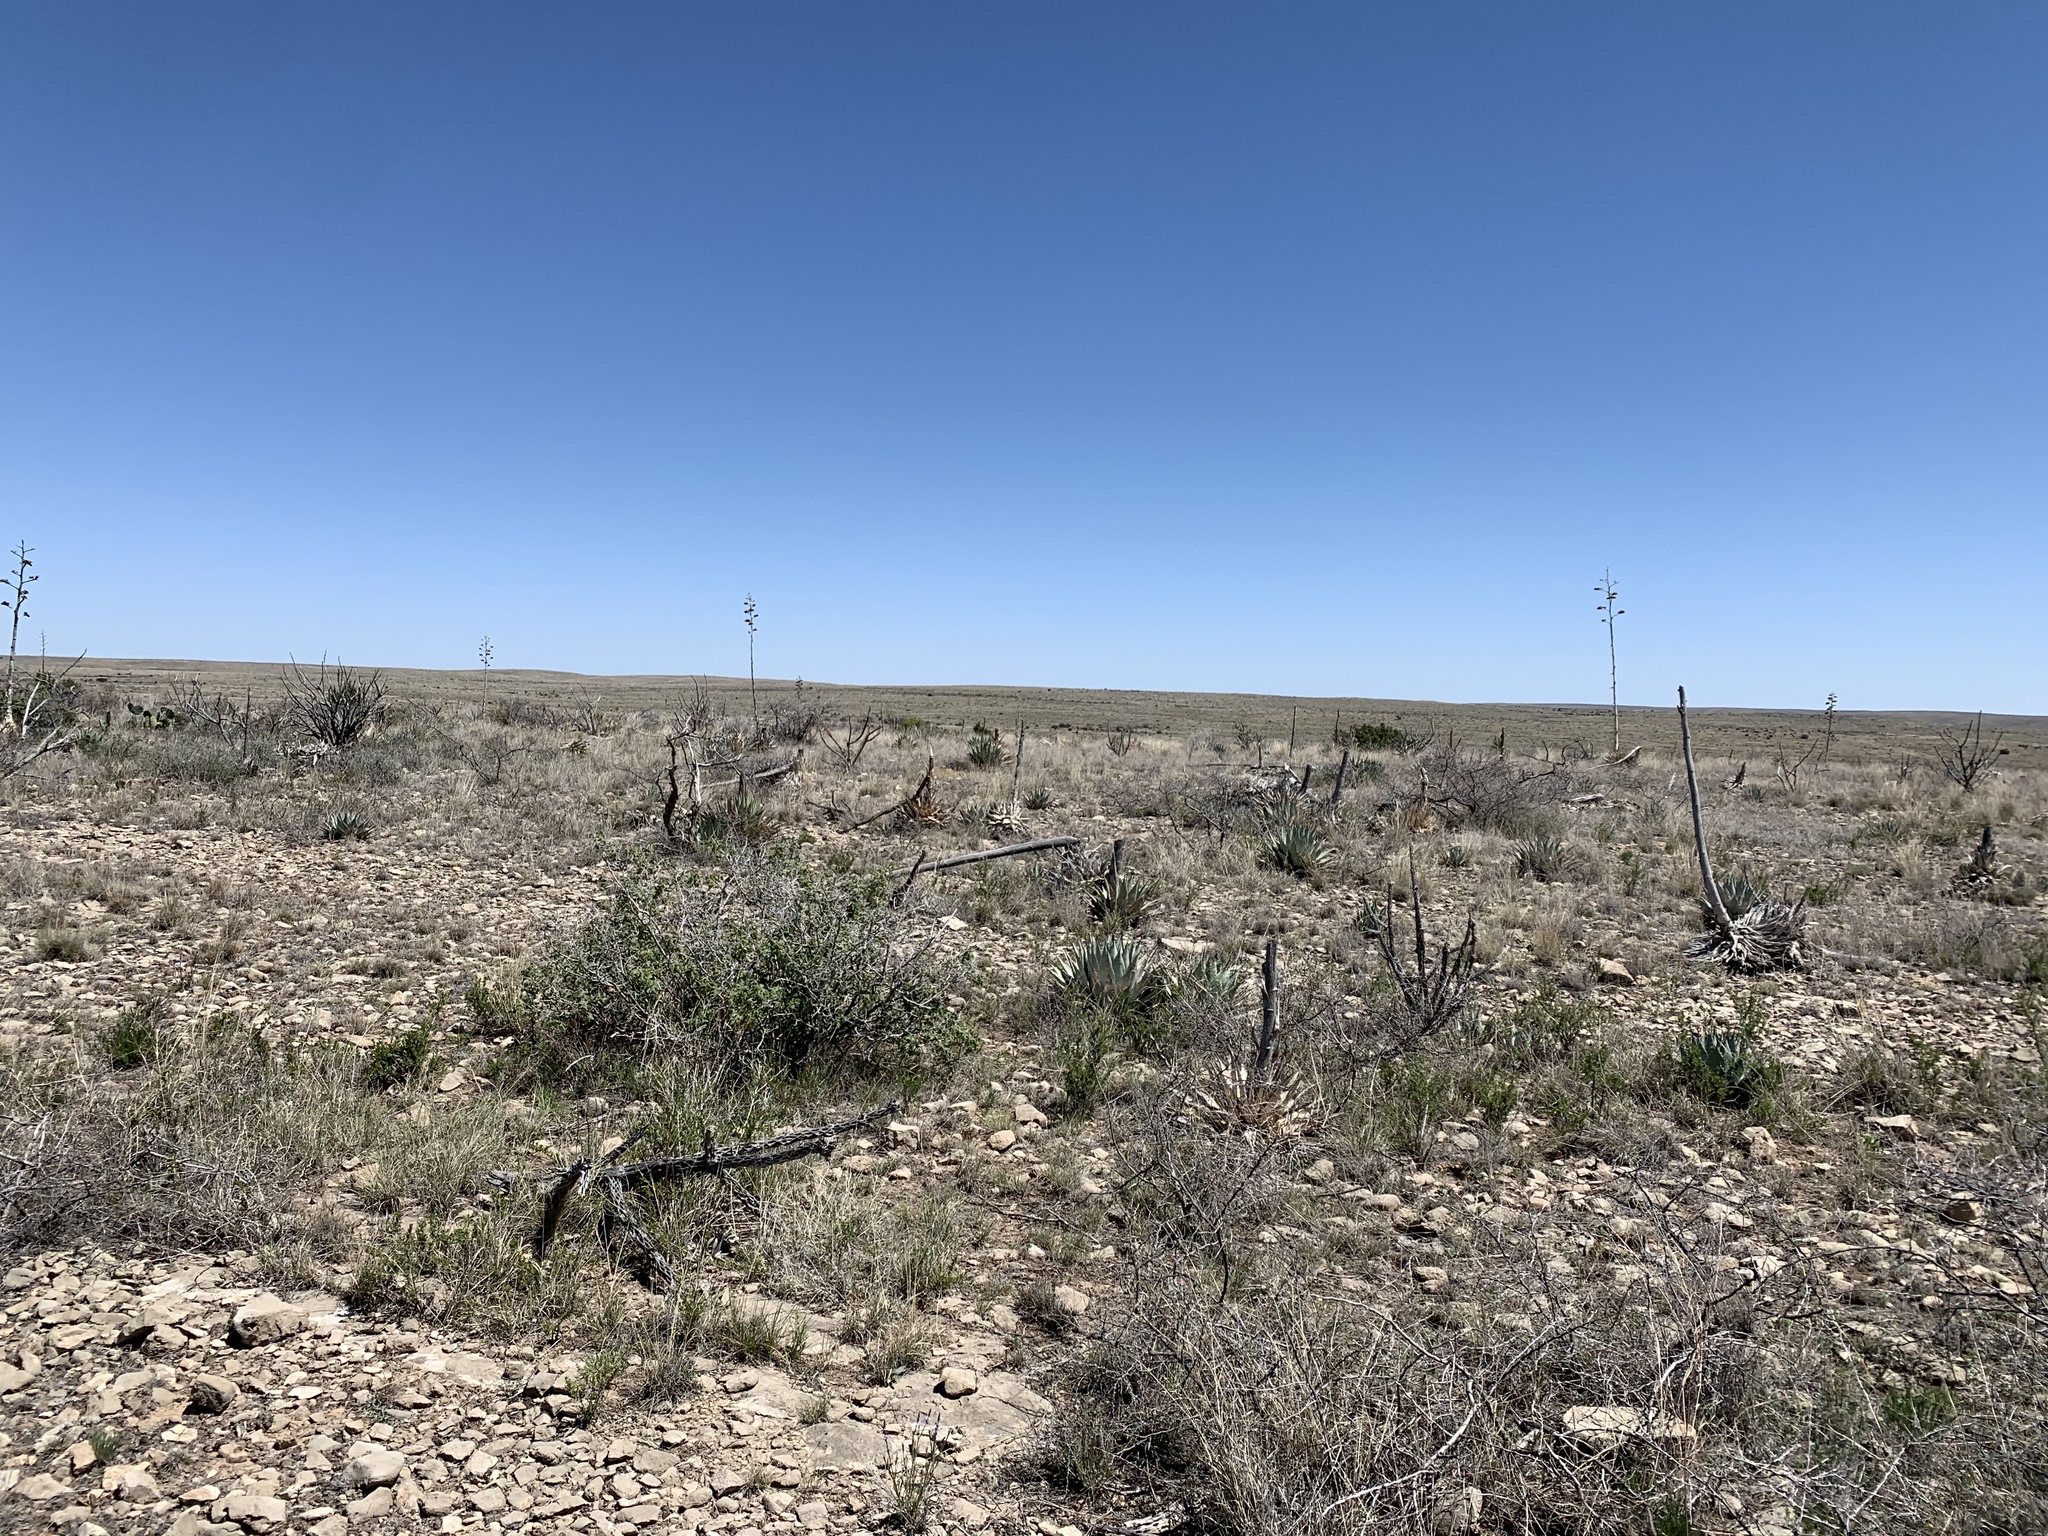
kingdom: Plantae
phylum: Tracheophyta
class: Liliopsida
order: Asparagales
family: Asparagaceae
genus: Agave
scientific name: Agave parryi
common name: Parry's agave
